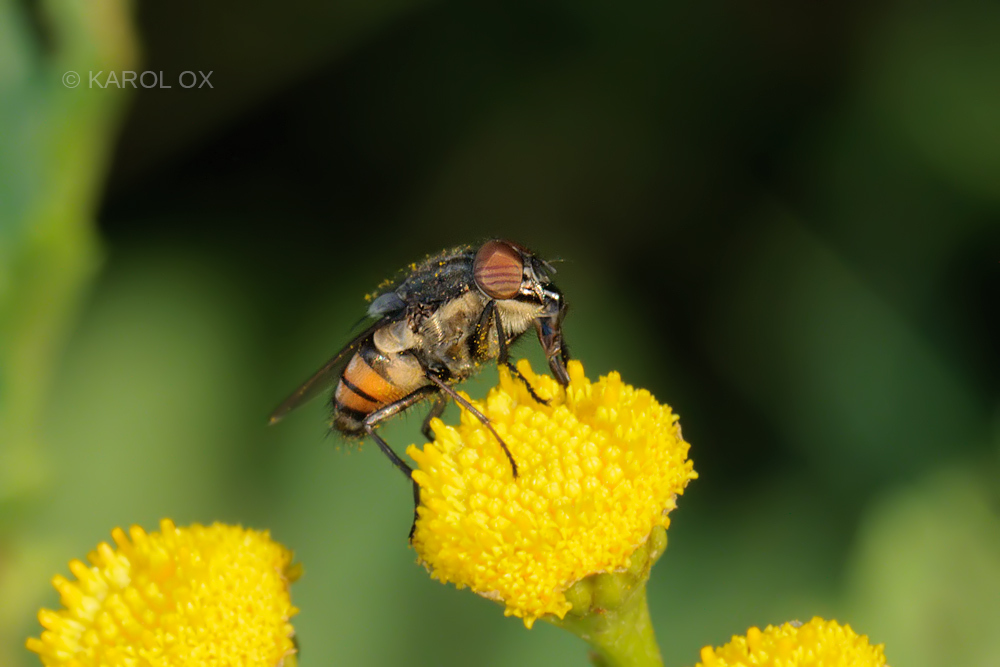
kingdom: Animalia
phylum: Arthropoda
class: Insecta
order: Diptera
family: Calliphoridae
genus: Stomorhina
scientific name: Stomorhina lunata
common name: Locust blowfly
